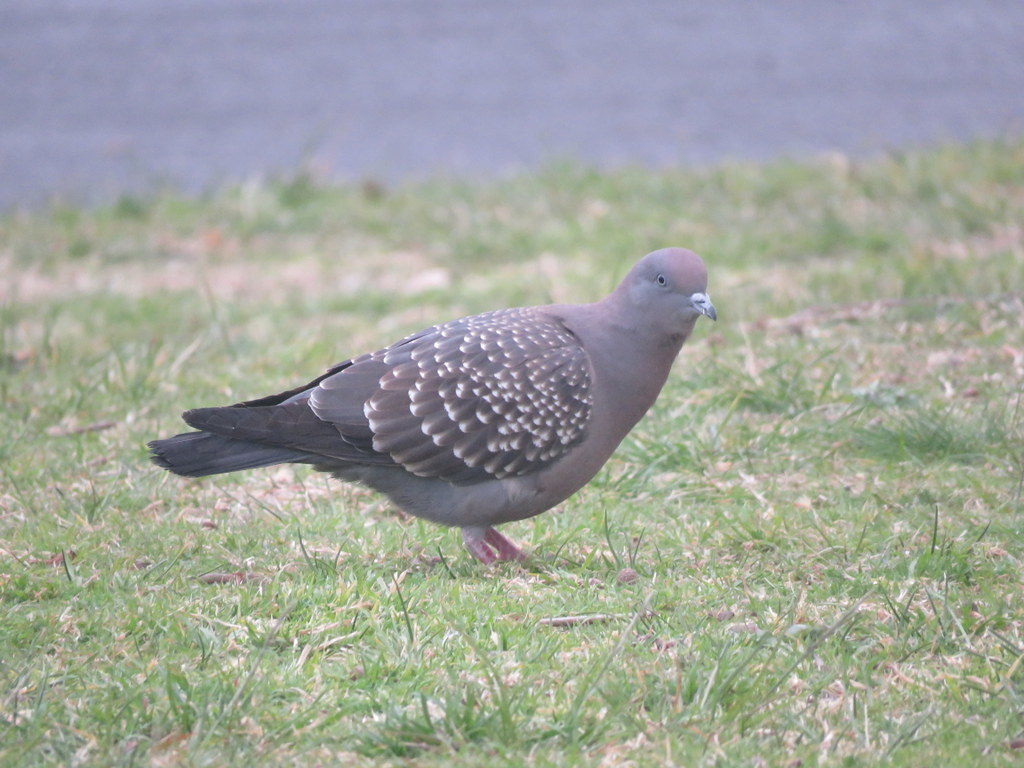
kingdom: Animalia
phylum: Chordata
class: Aves
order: Columbiformes
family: Columbidae
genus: Patagioenas
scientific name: Patagioenas maculosa
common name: Spot-winged pigeon
